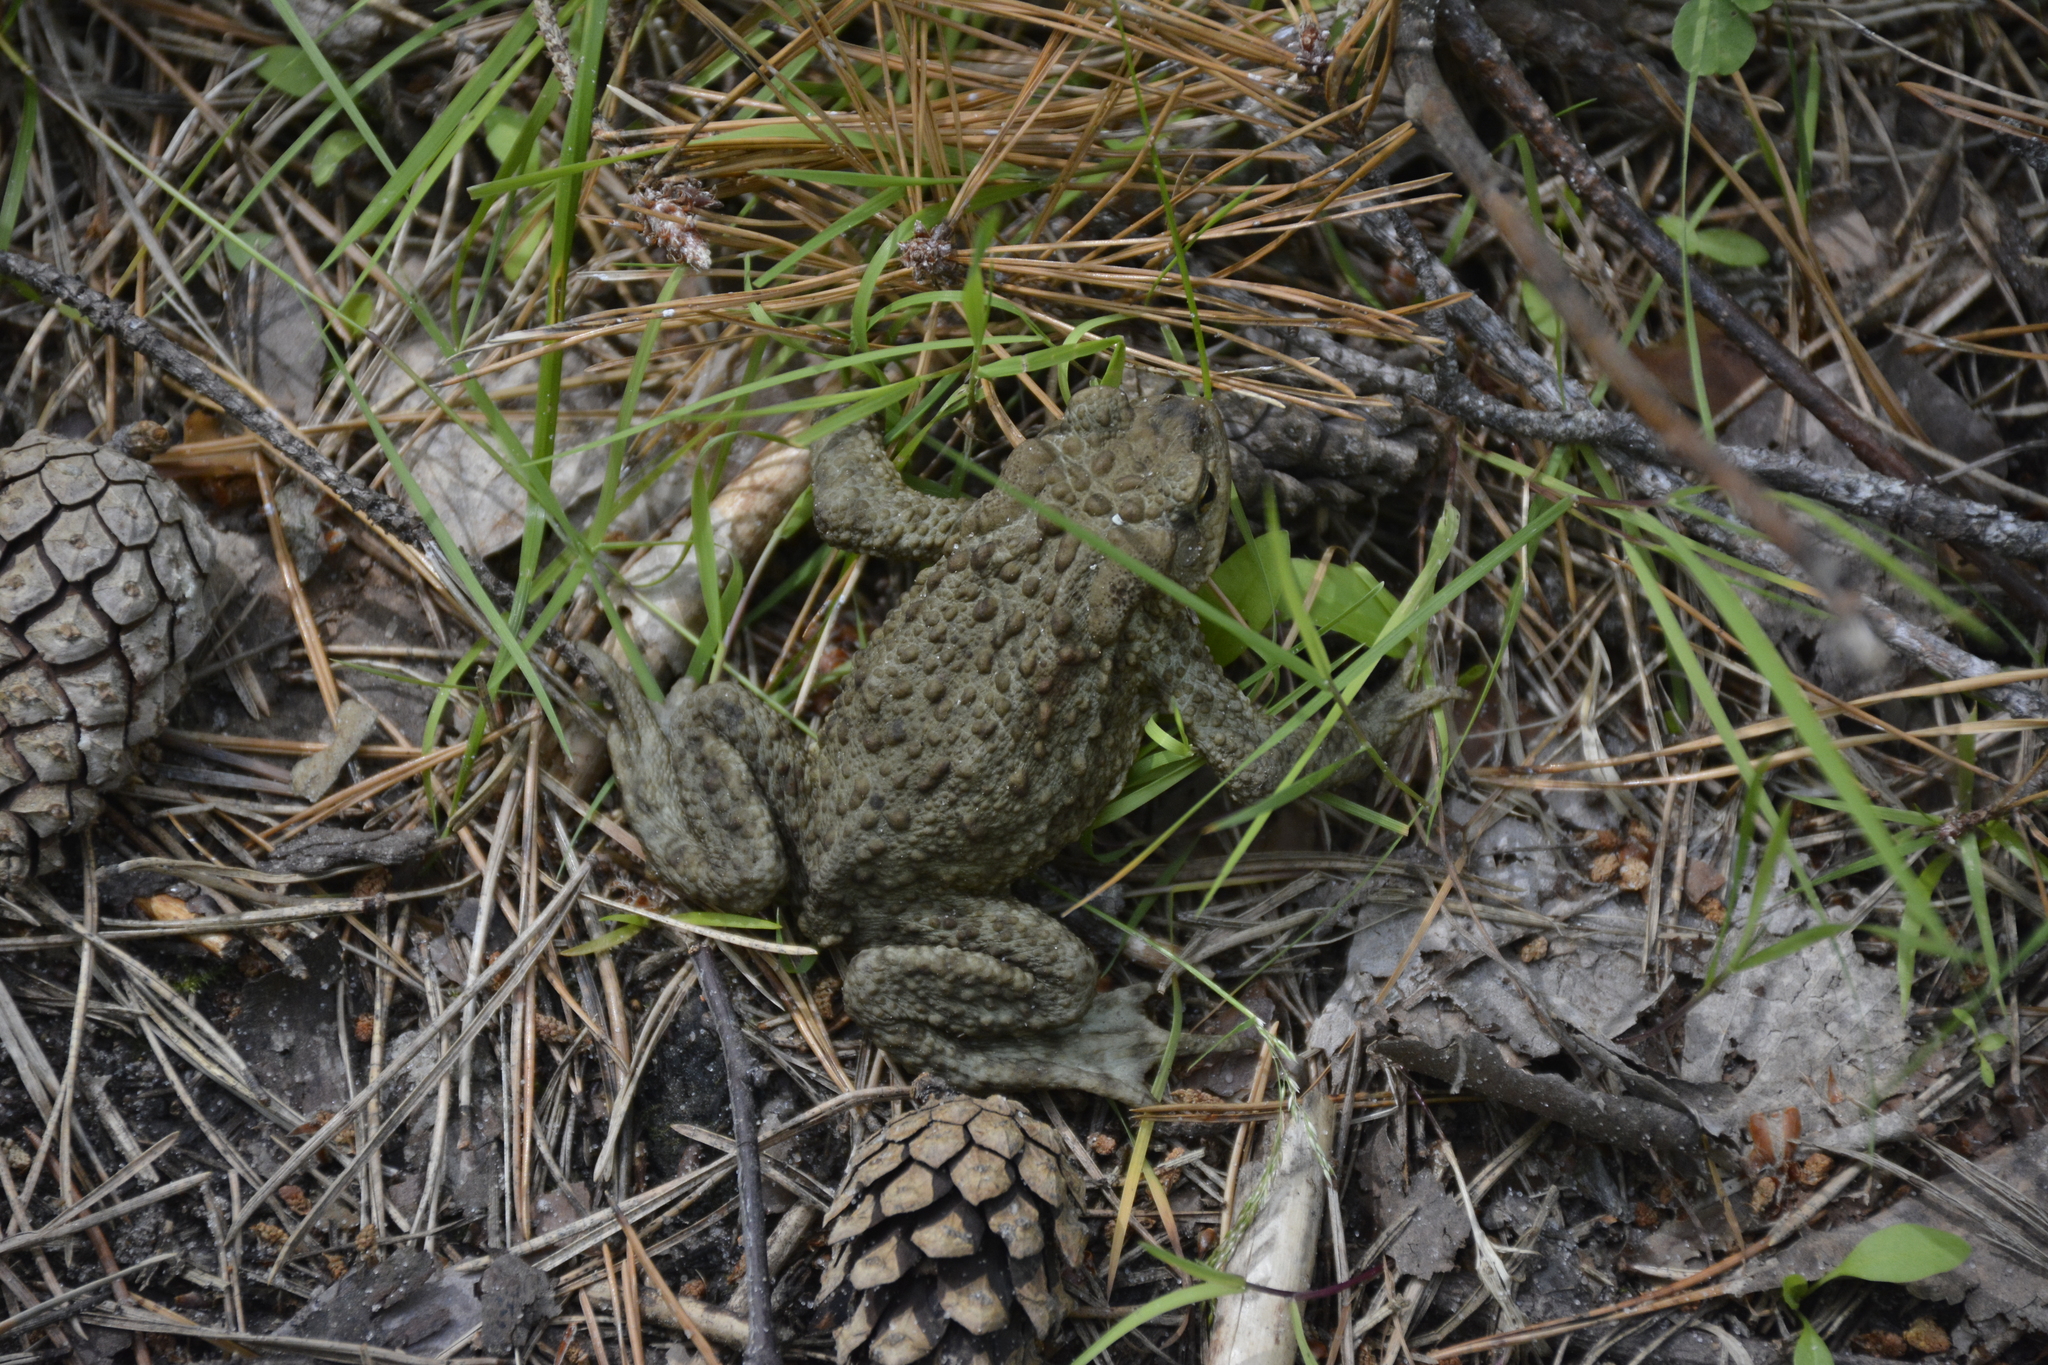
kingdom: Animalia
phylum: Chordata
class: Amphibia
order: Anura
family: Bufonidae
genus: Bufo
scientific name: Bufo bufo
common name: Common toad
